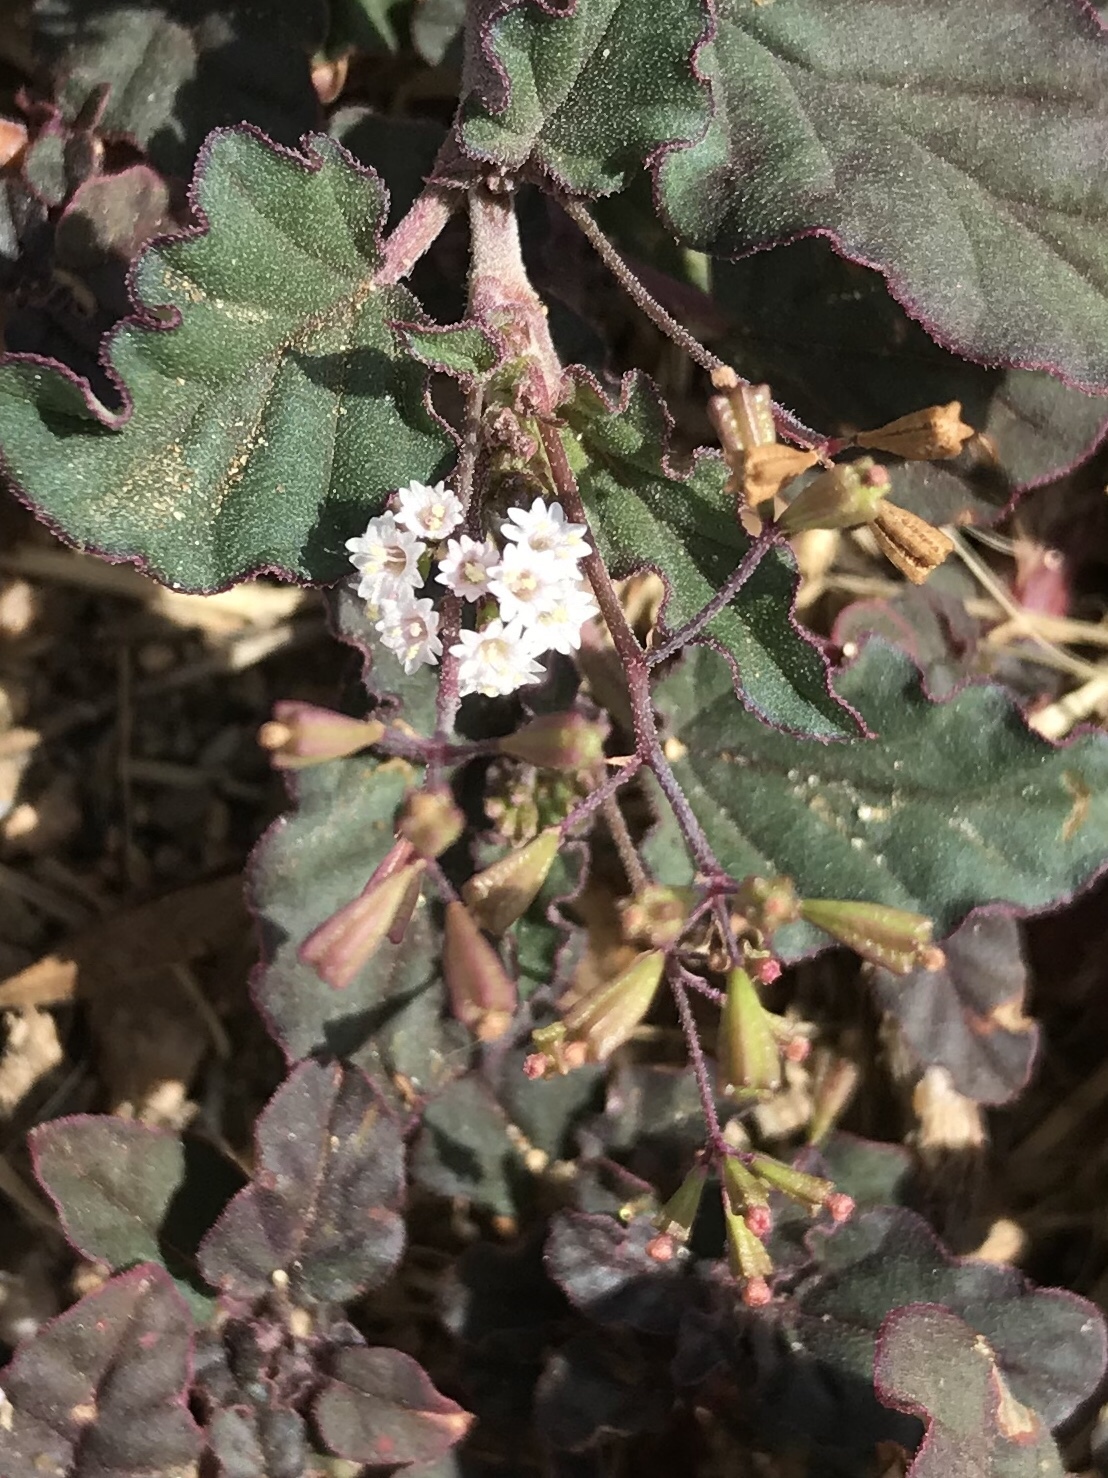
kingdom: Plantae
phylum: Tracheophyta
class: Magnoliopsida
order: Caryophyllales
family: Nyctaginaceae
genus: Boerhavia
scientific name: Boerhavia erecta
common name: Erect spiderling
